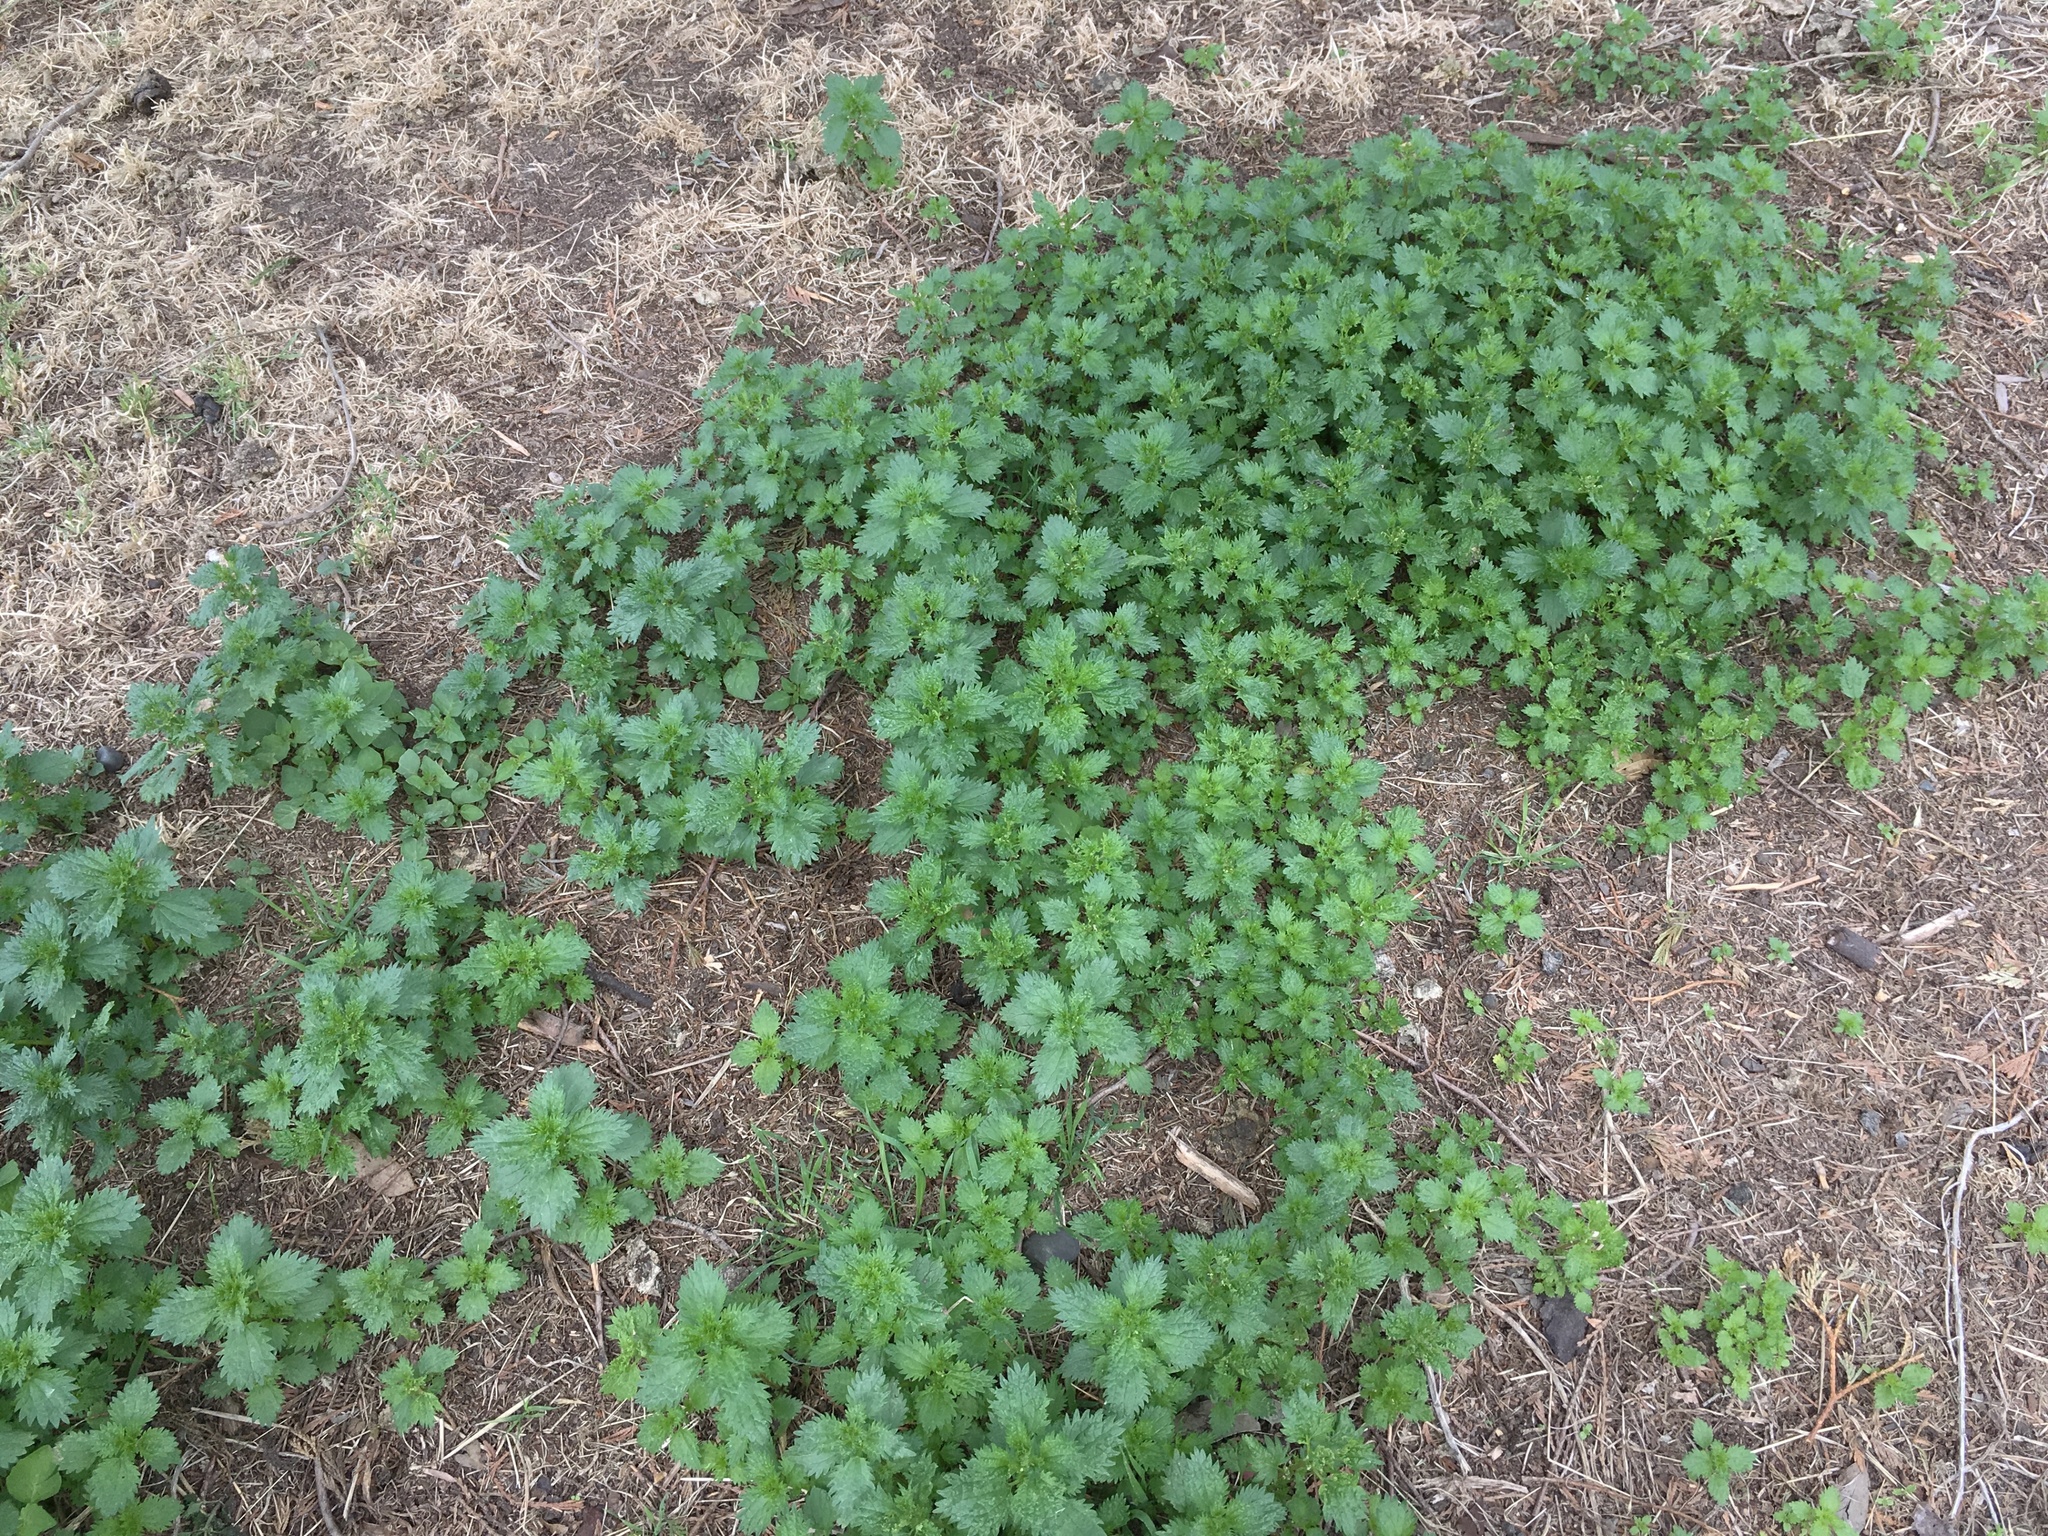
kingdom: Plantae
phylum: Tracheophyta
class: Magnoliopsida
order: Rosales
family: Urticaceae
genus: Urtica
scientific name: Urtica urens
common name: Dwarf nettle
